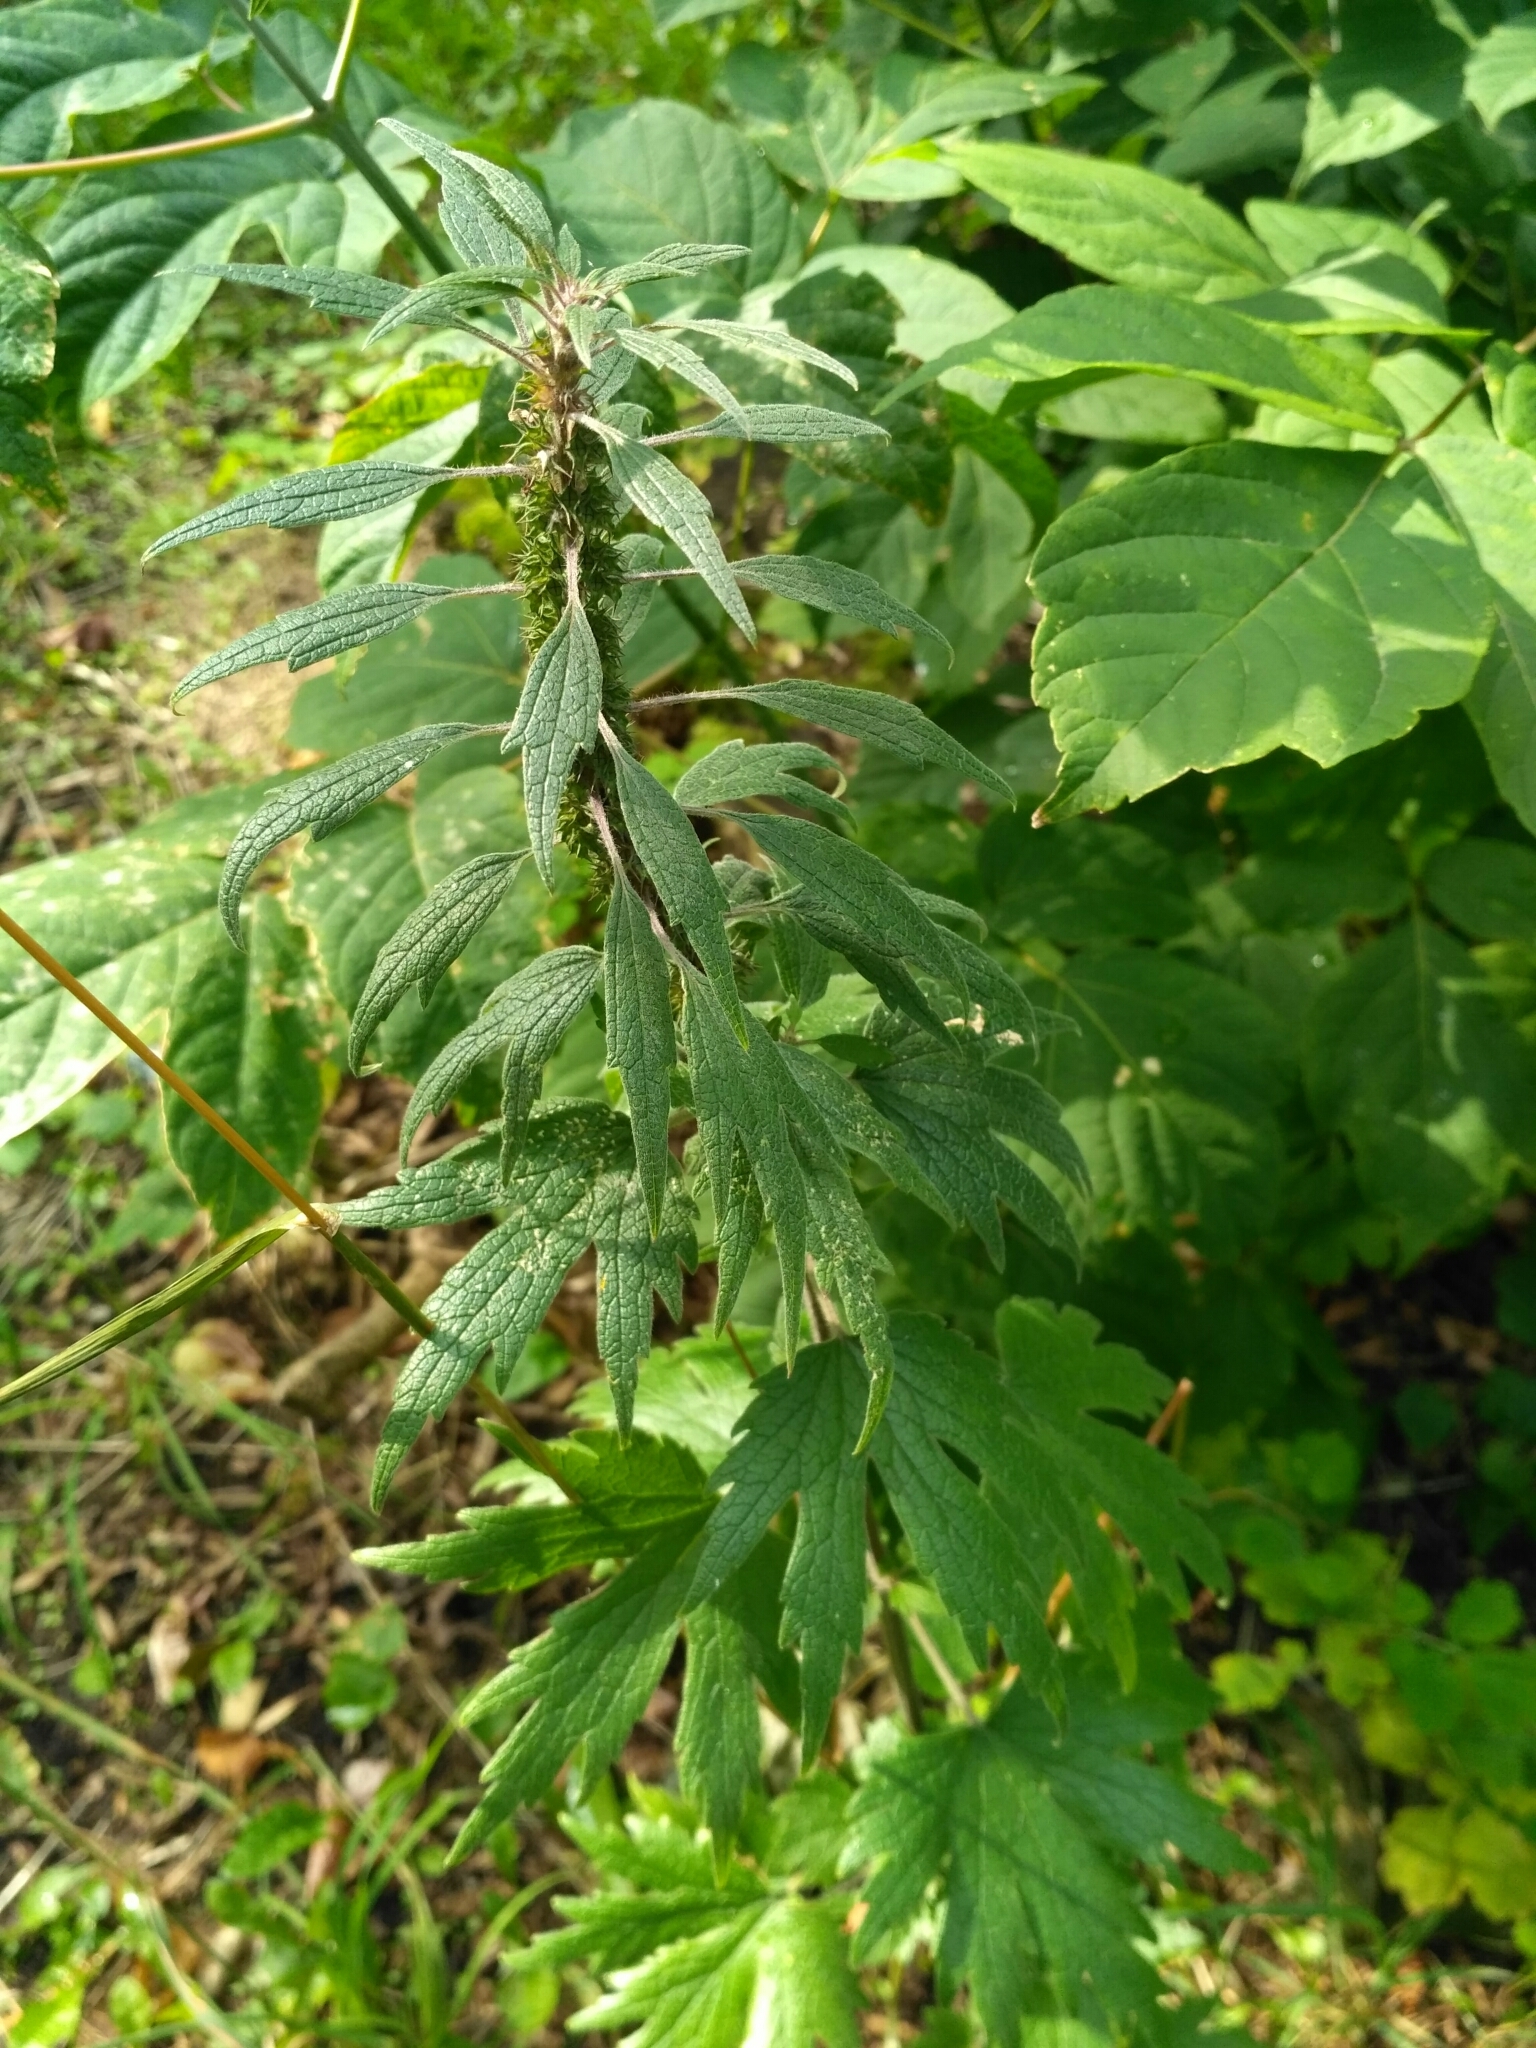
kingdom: Plantae
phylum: Tracheophyta
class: Magnoliopsida
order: Lamiales
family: Lamiaceae
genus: Leonurus
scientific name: Leonurus quinquelobatus
